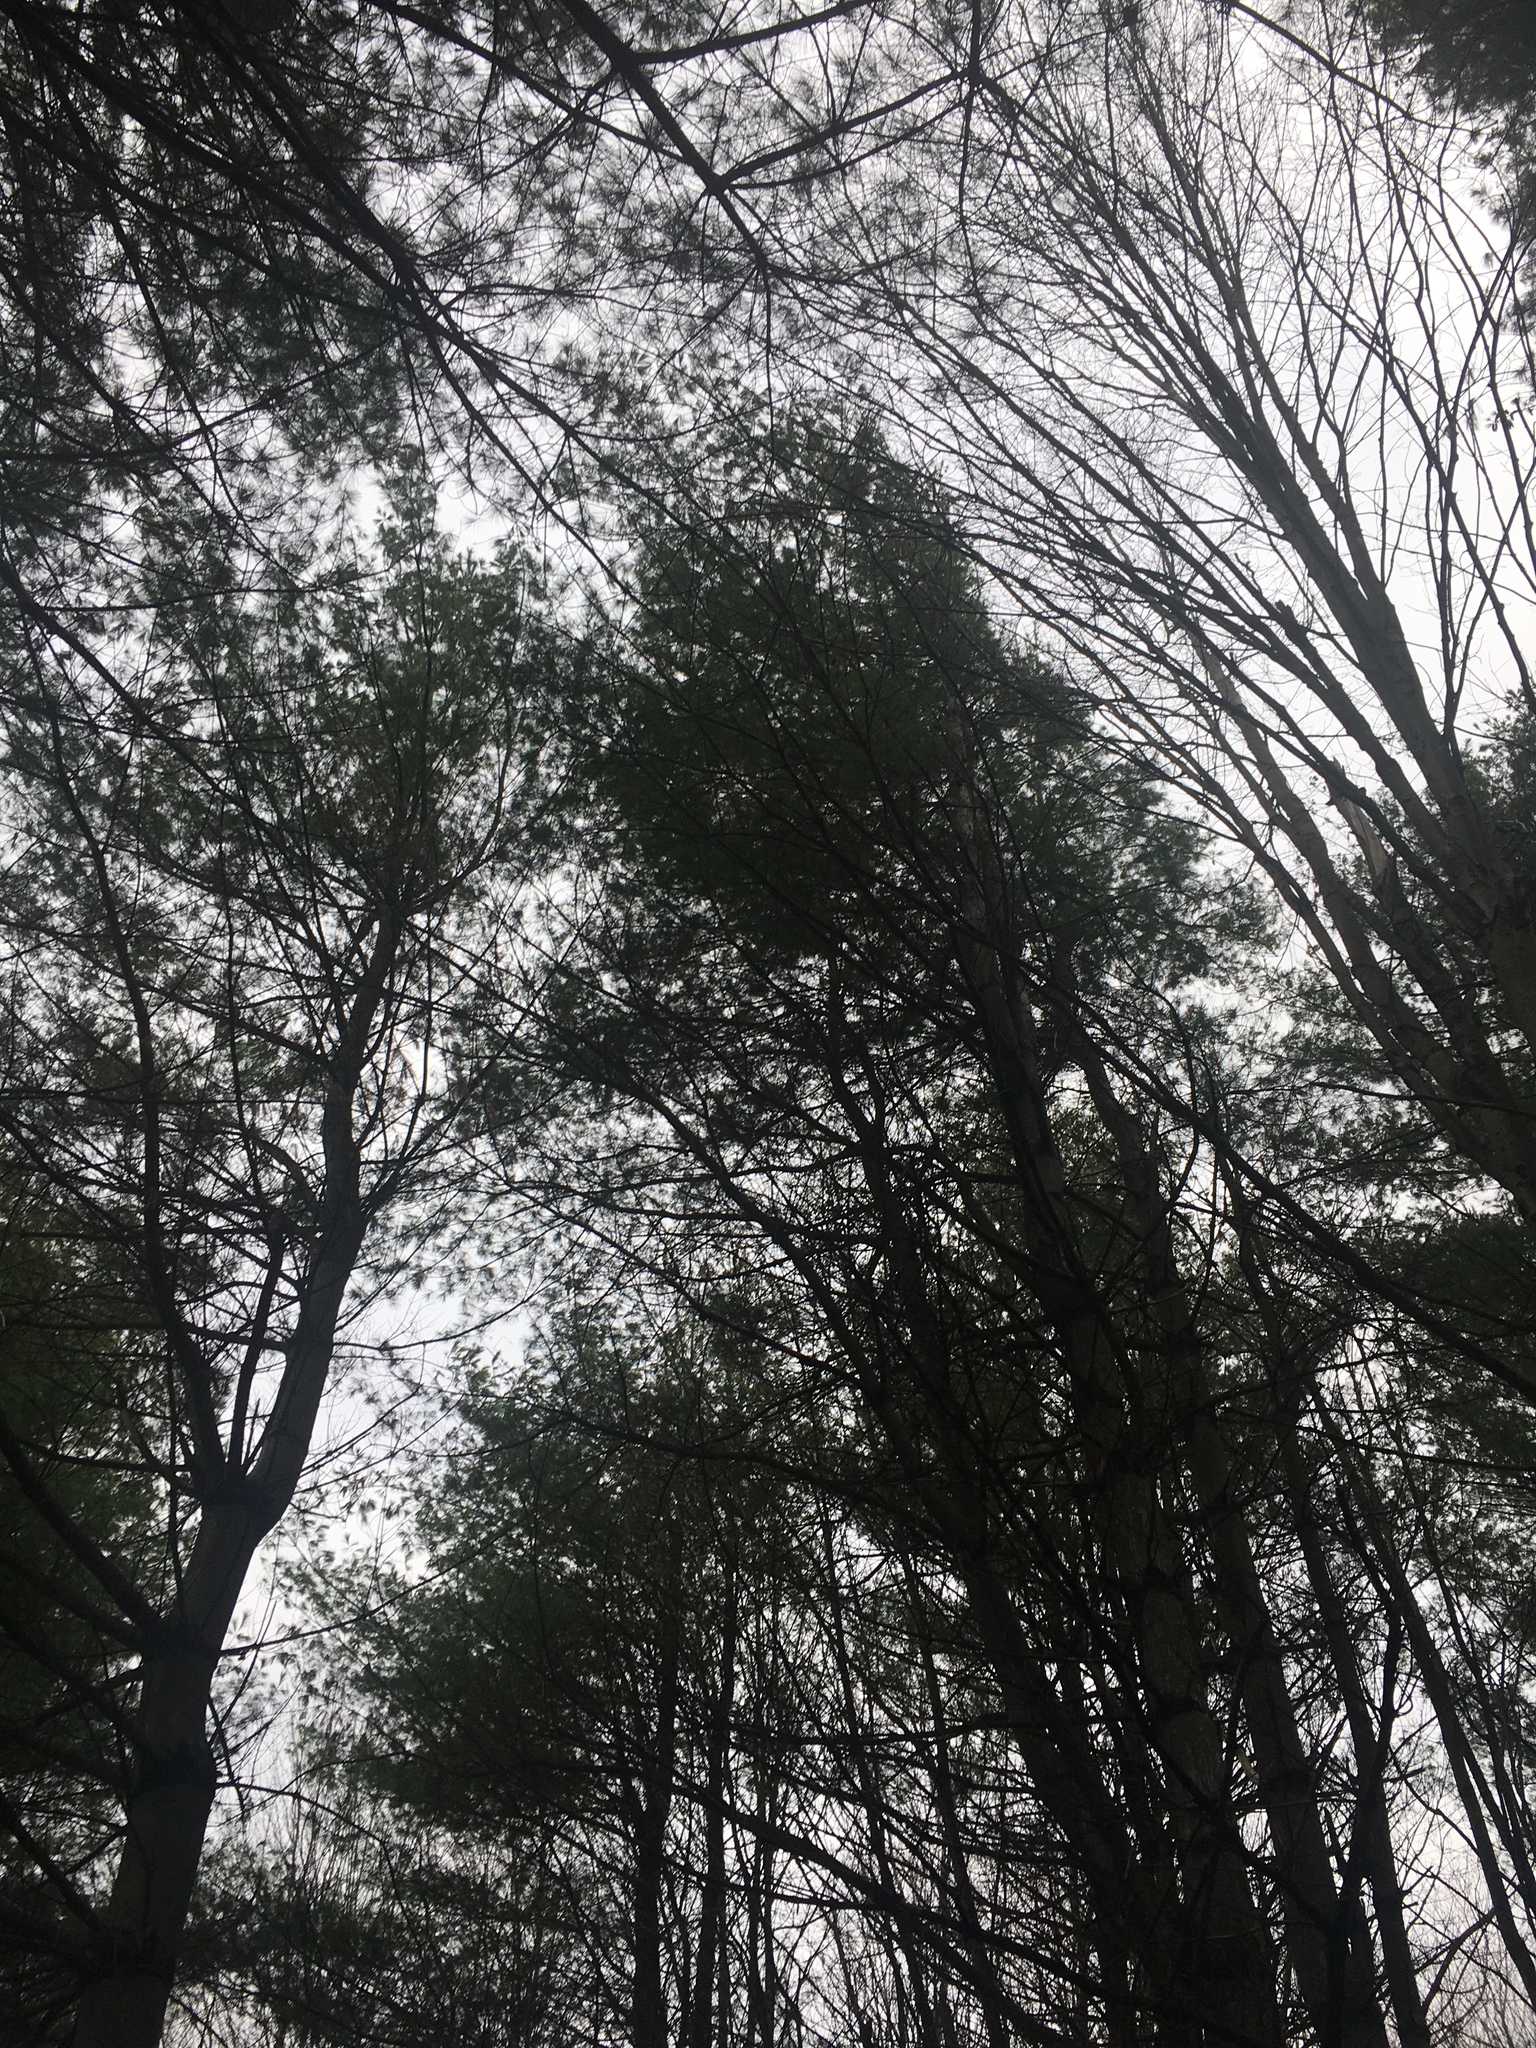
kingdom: Plantae
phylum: Tracheophyta
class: Pinopsida
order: Pinales
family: Pinaceae
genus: Pinus
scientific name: Pinus strobus
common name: Weymouth pine
